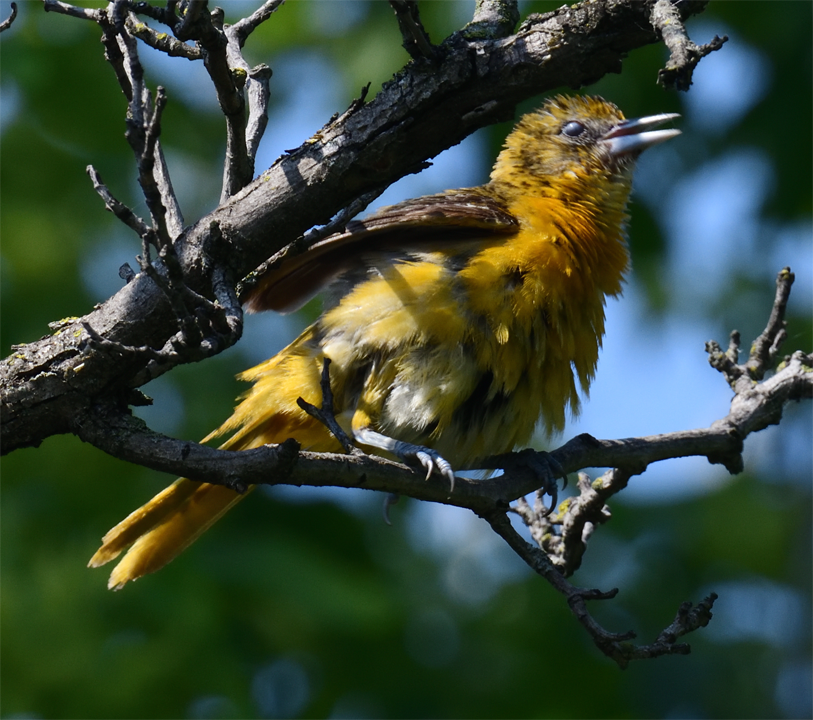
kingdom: Animalia
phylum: Chordata
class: Aves
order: Passeriformes
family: Icteridae
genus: Icterus
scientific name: Icterus galbula
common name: Baltimore oriole
